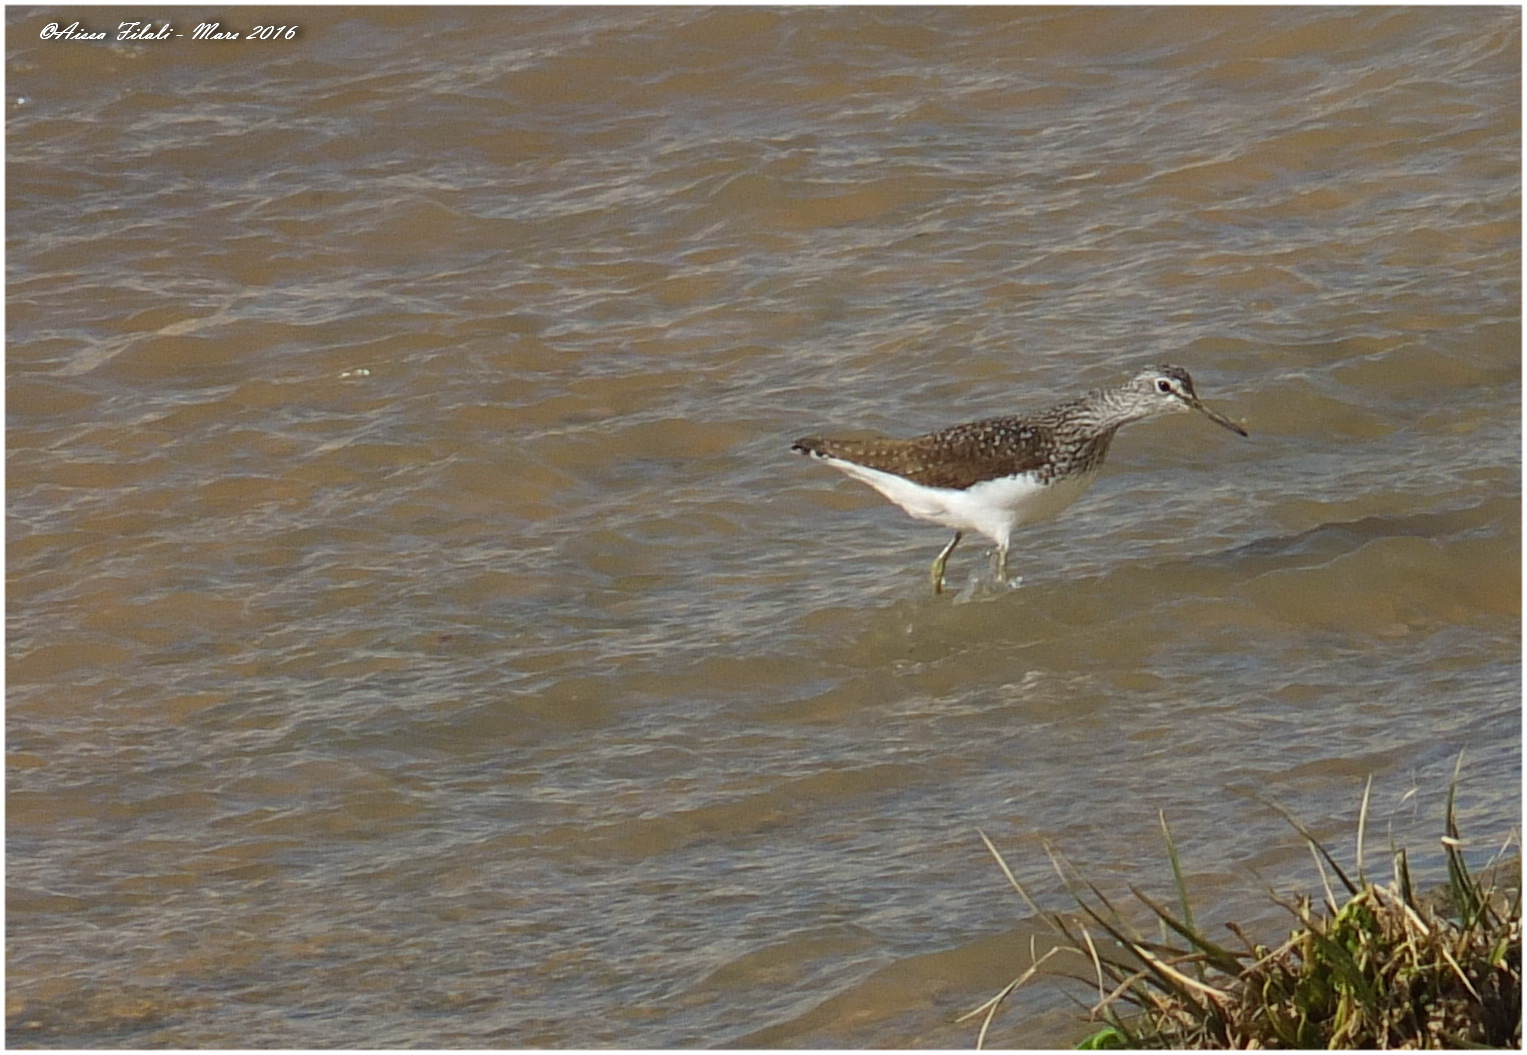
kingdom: Animalia
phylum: Chordata
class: Aves
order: Charadriiformes
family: Scolopacidae
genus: Tringa
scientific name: Tringa ochropus
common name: Green sandpiper
